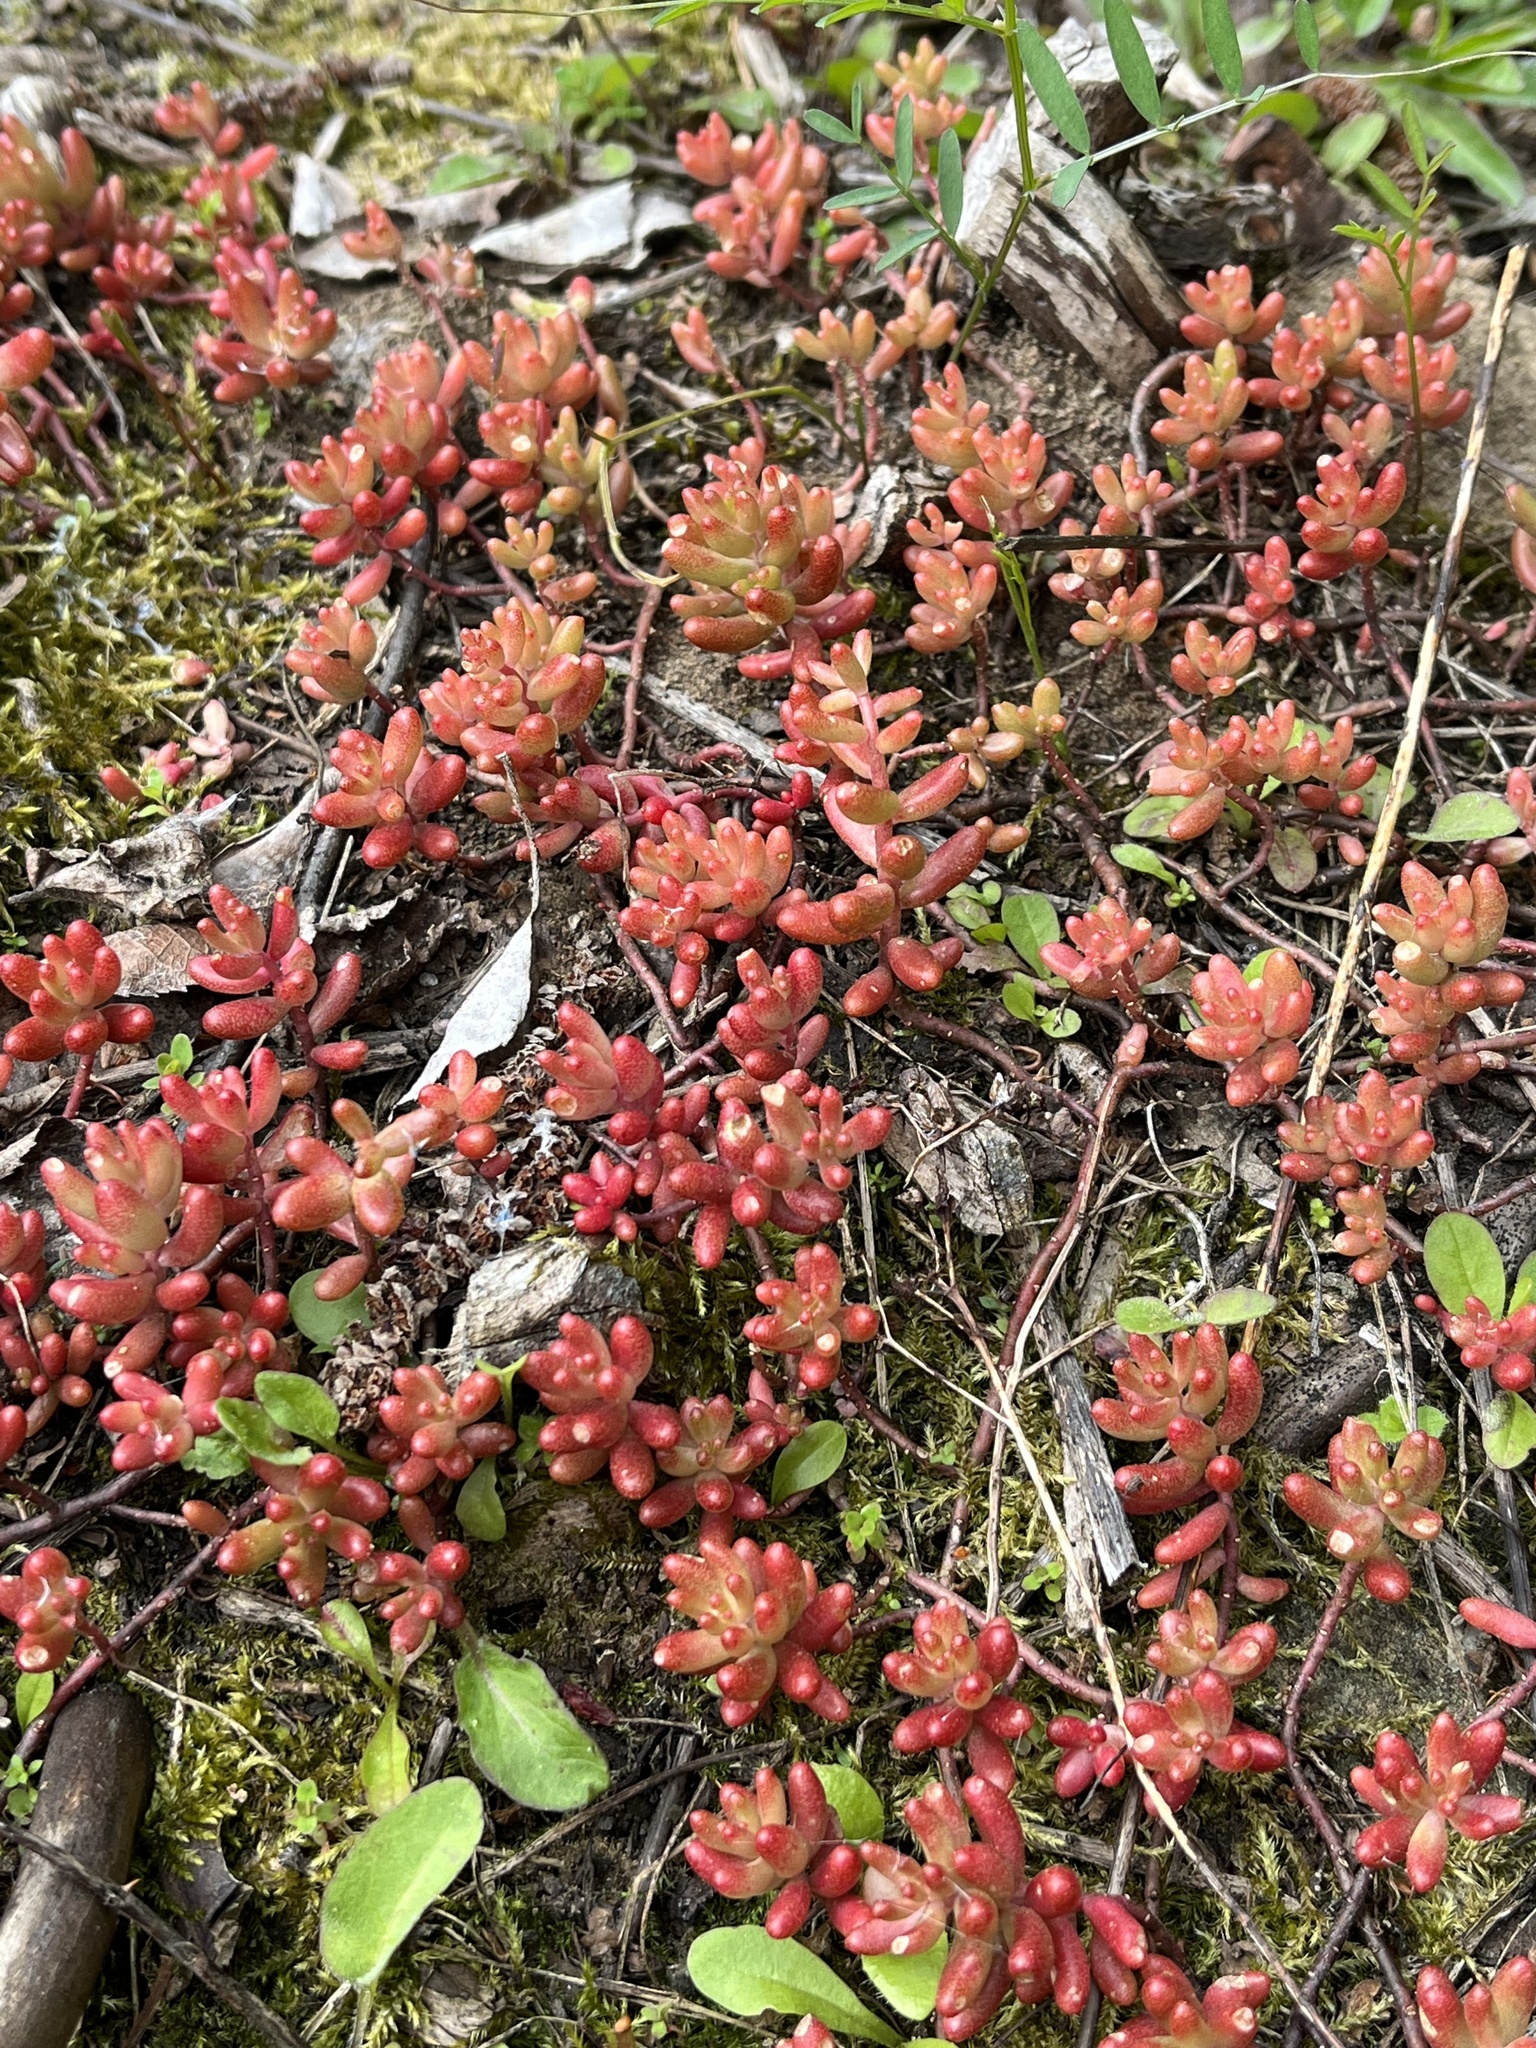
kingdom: Plantae
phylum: Tracheophyta
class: Magnoliopsida
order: Saxifragales
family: Crassulaceae
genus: Sedum
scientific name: Sedum album
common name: White stonecrop
